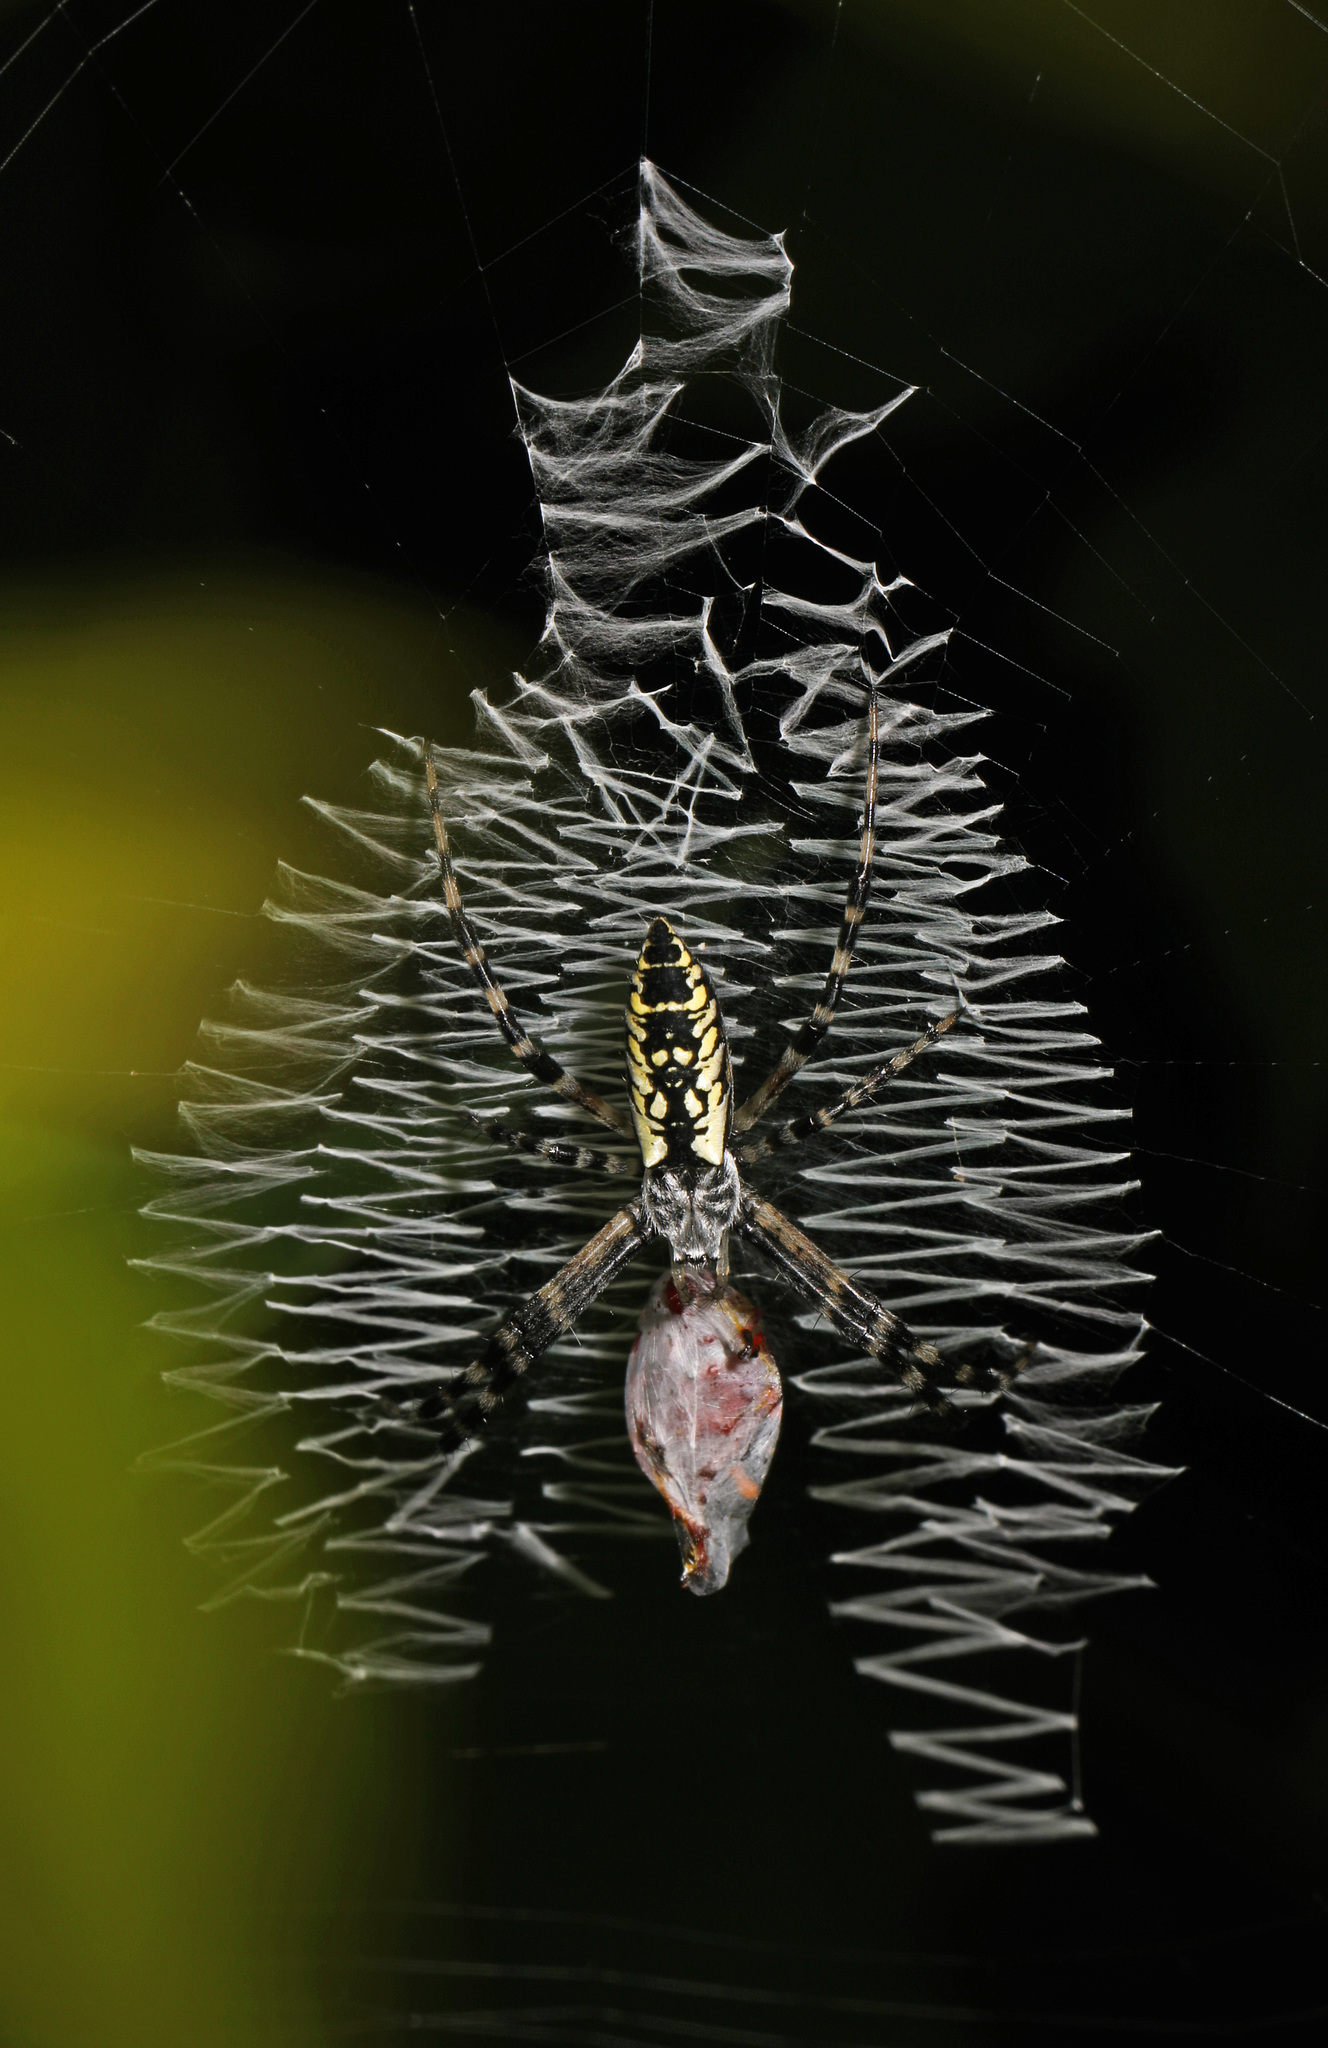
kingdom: Animalia
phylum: Arthropoda
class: Arachnida
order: Araneae
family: Araneidae
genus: Argiope
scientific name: Argiope aurantia
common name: Orb weavers
